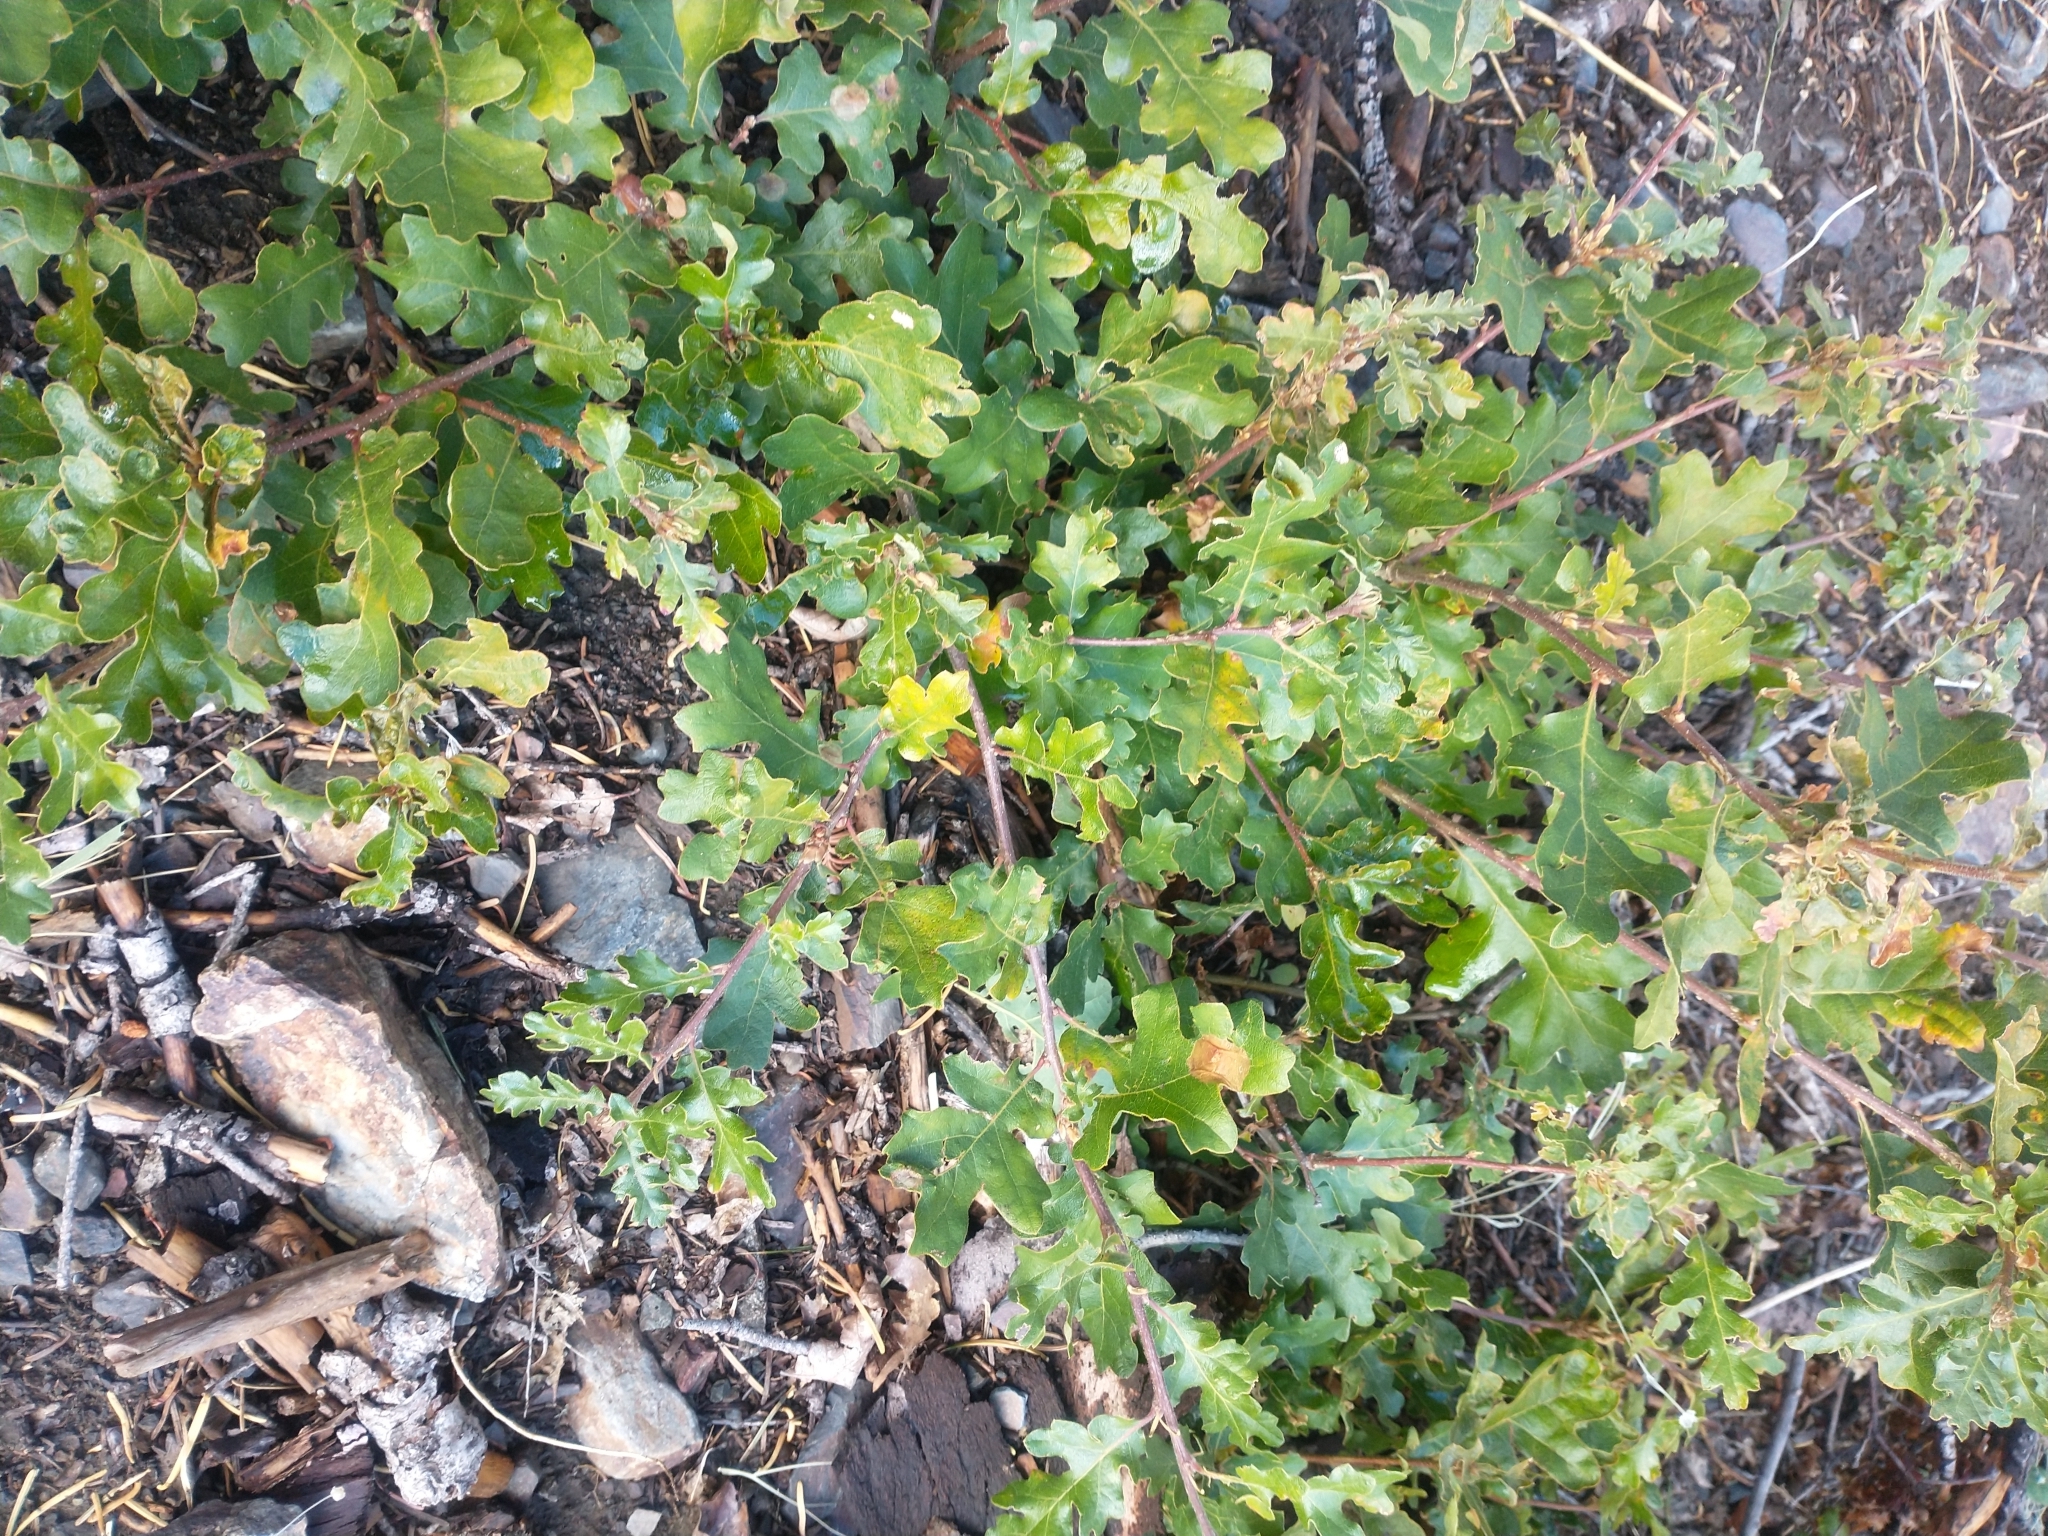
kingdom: Plantae
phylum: Tracheophyta
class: Magnoliopsida
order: Fagales
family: Fagaceae
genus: Quercus
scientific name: Quercus garryana
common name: Garry oak
